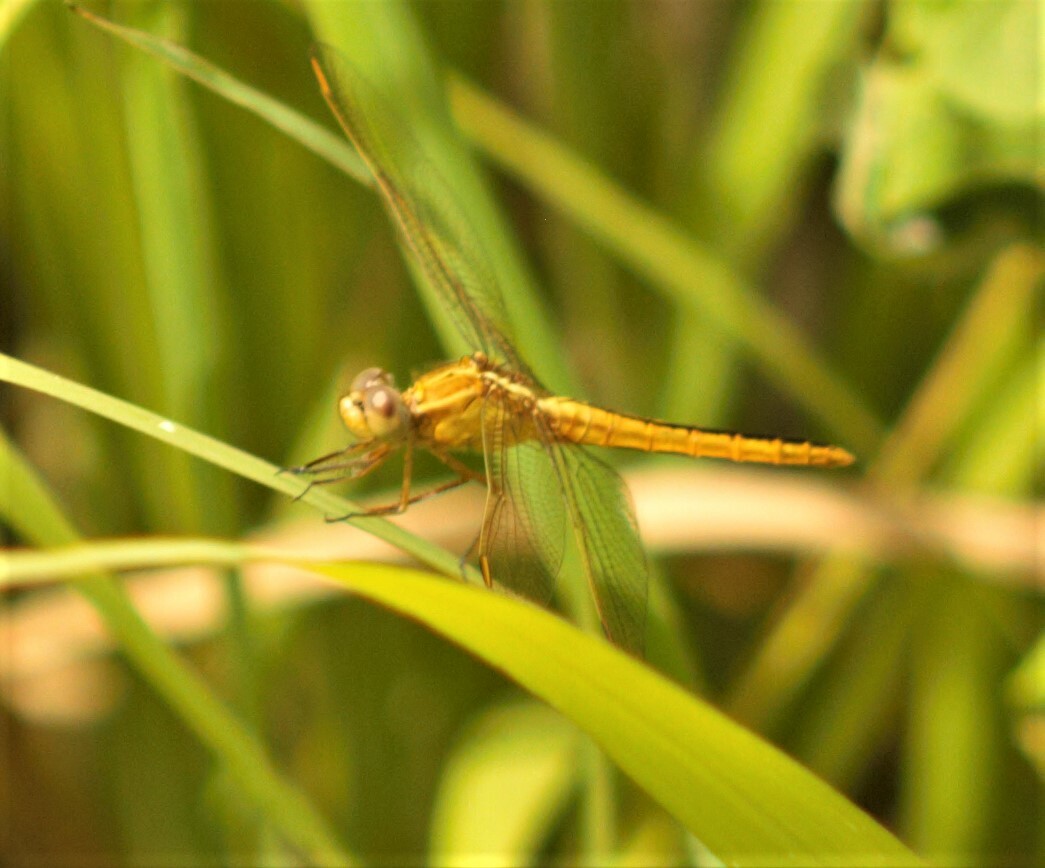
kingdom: Animalia
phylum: Arthropoda
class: Insecta
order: Odonata
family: Libellulidae
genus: Crocothemis
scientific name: Crocothemis nigrifrons
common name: Black-headed skimmer
